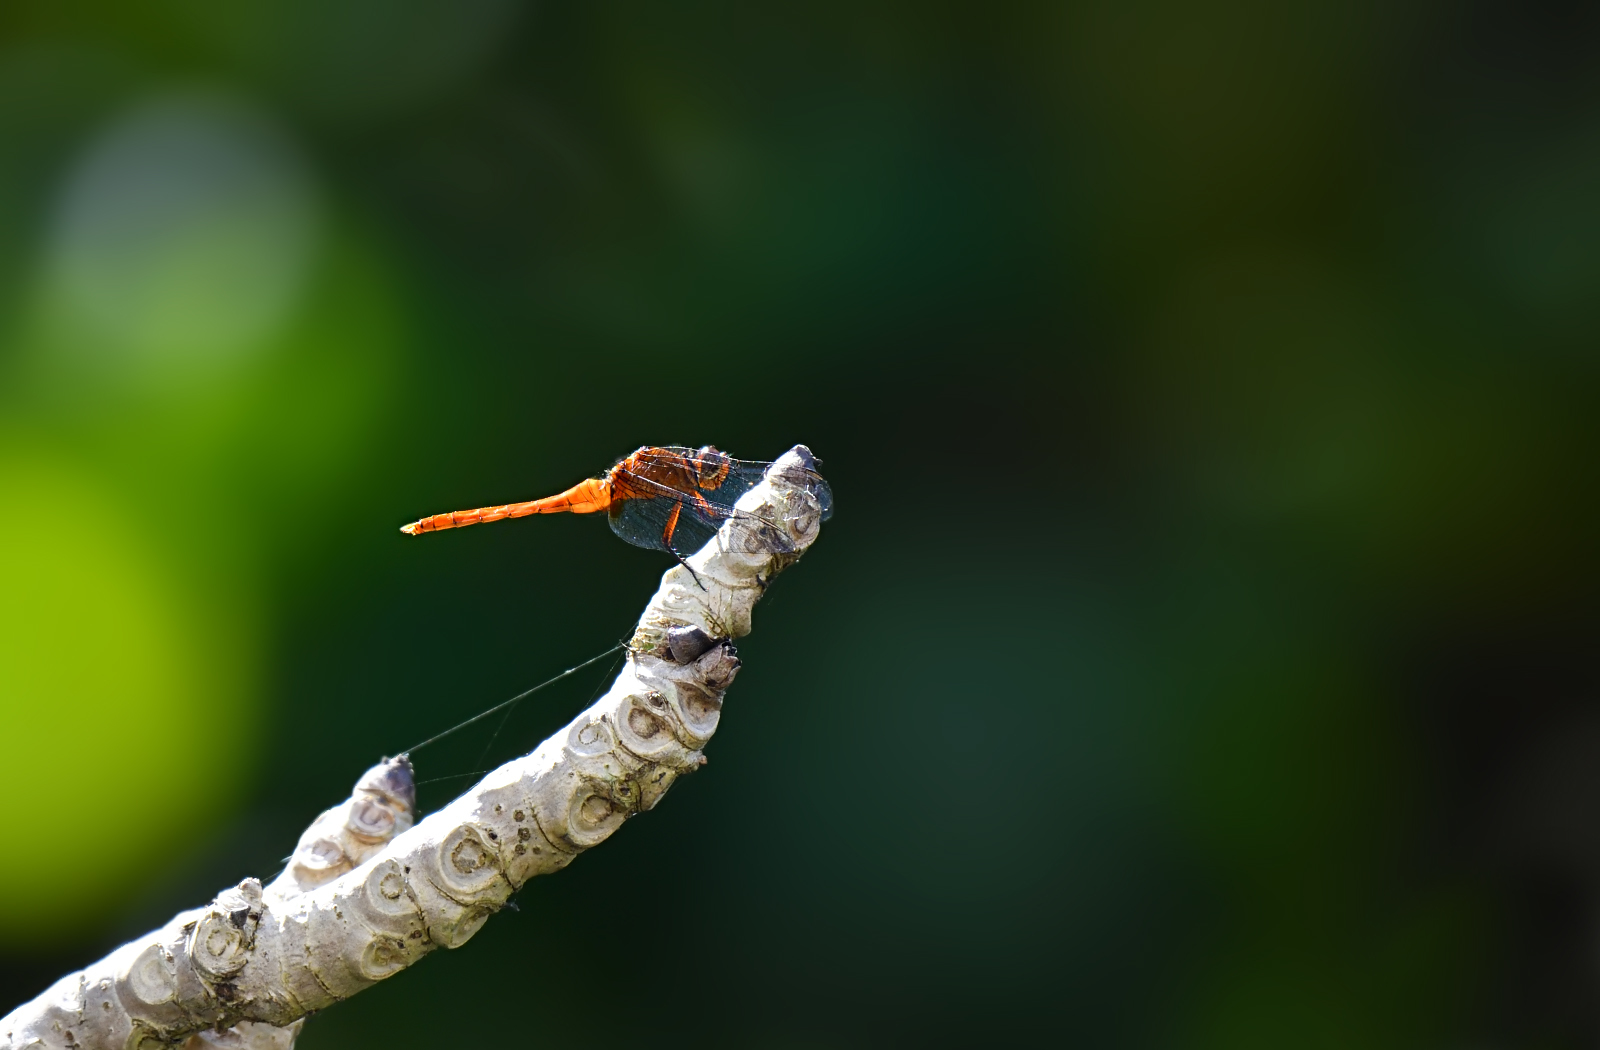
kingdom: Animalia
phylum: Arthropoda
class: Insecta
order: Odonata
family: Libellulidae
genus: Orthetrum
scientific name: Orthetrum pruinosum
